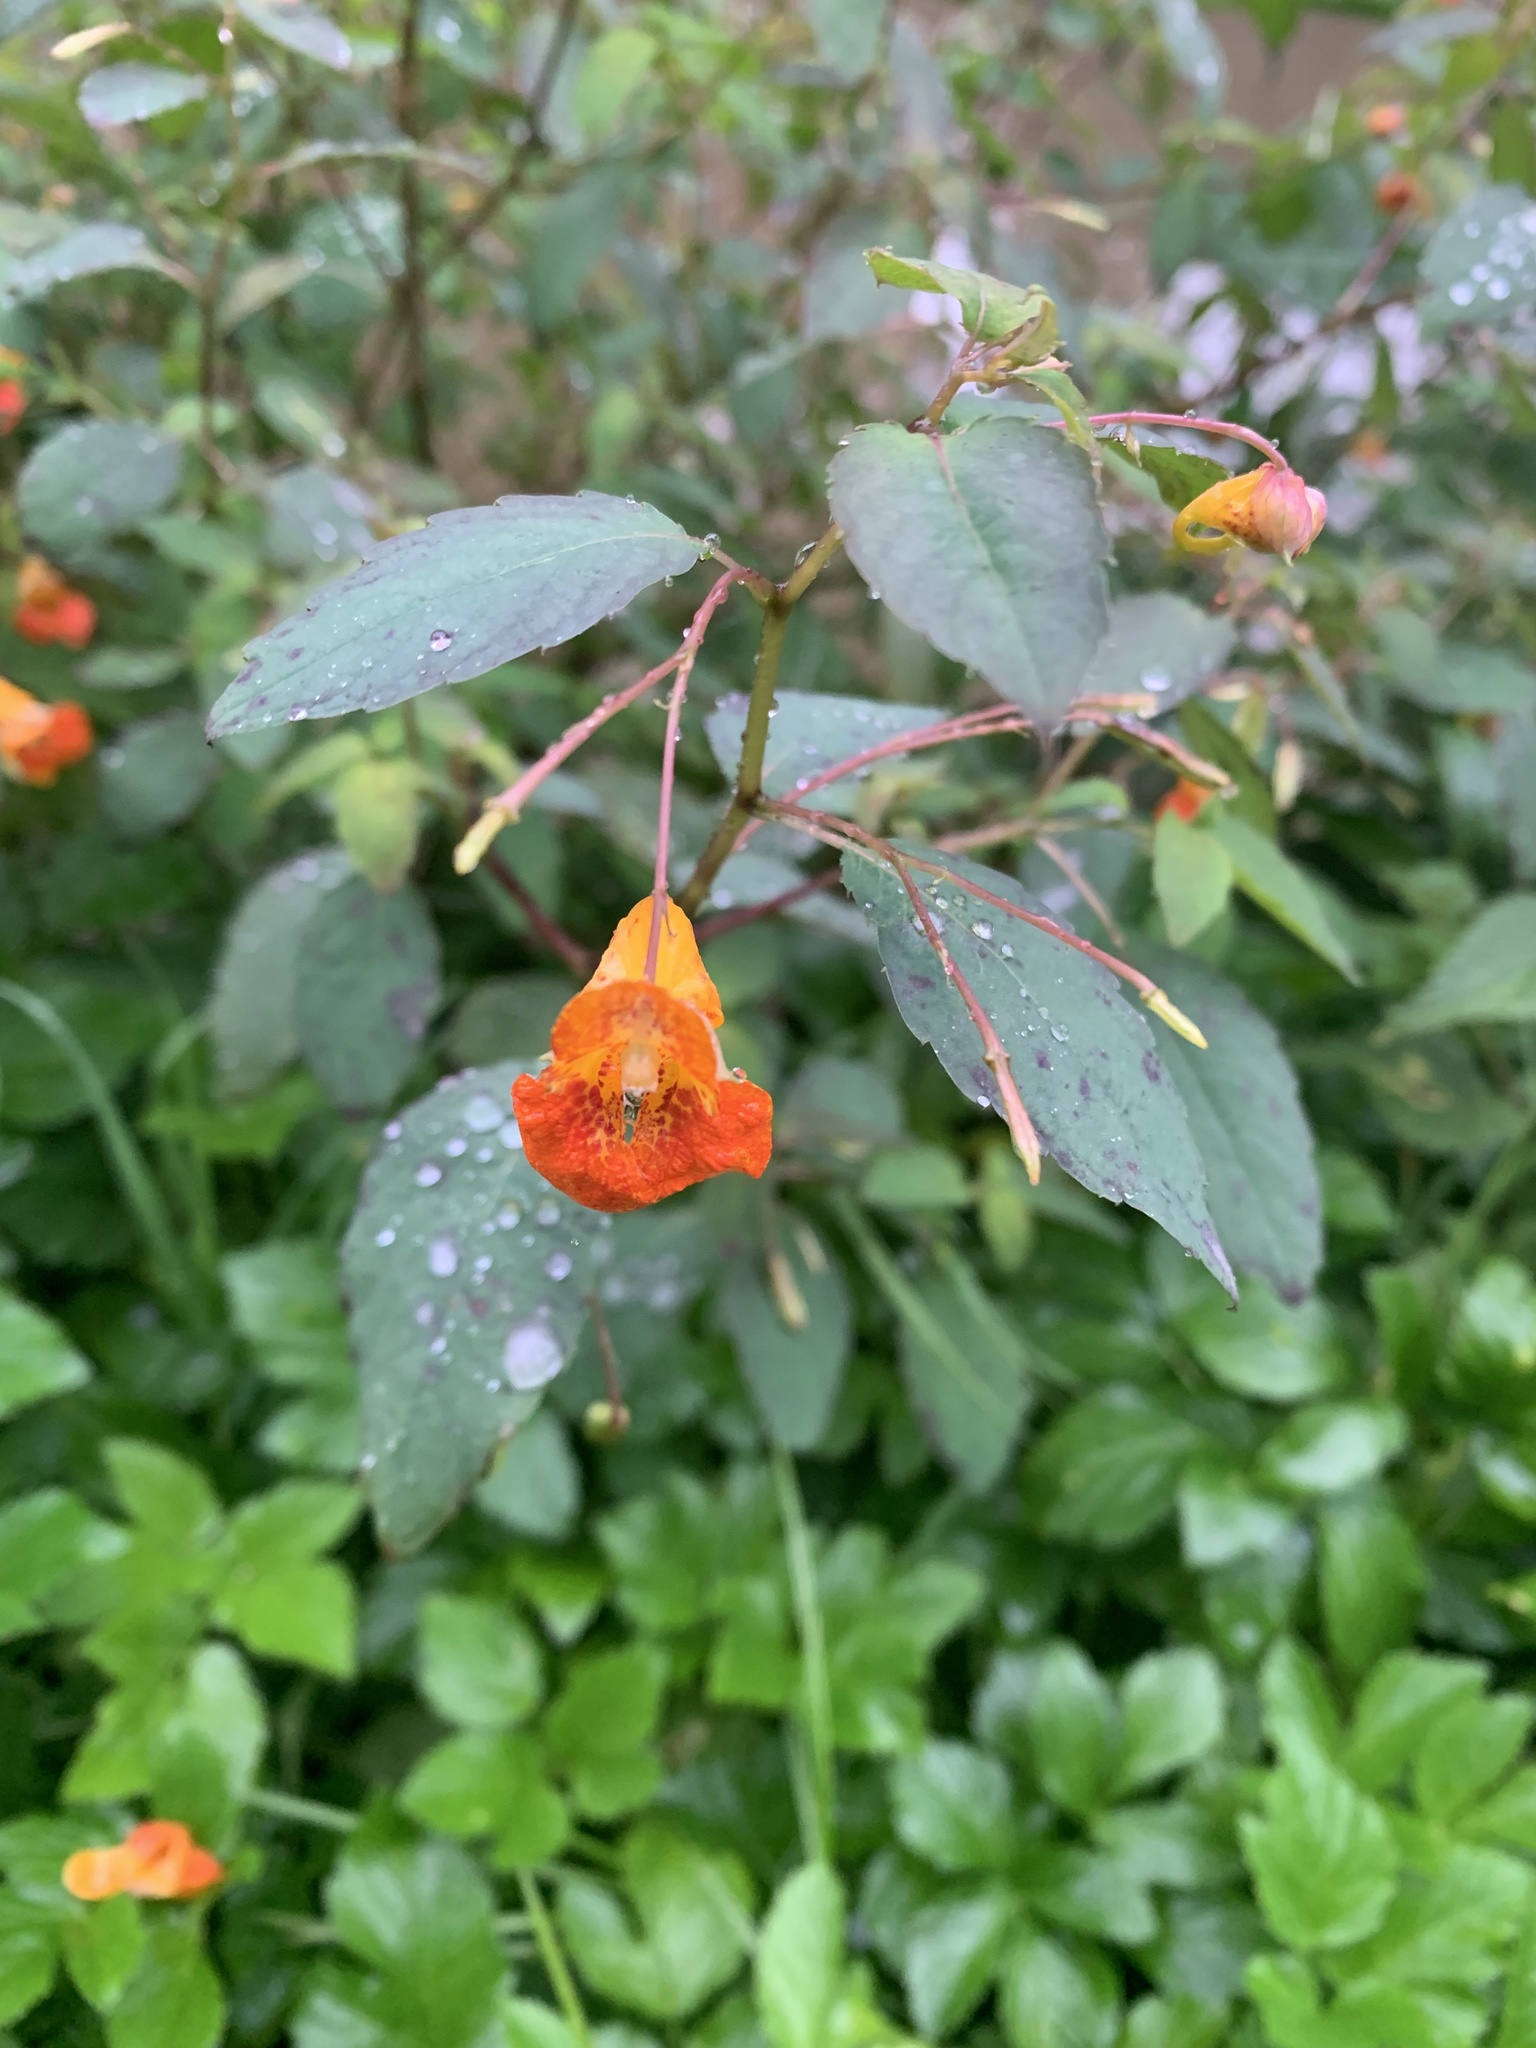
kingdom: Plantae
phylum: Tracheophyta
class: Magnoliopsida
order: Ericales
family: Balsaminaceae
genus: Impatiens
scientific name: Impatiens capensis
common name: Orange balsam
